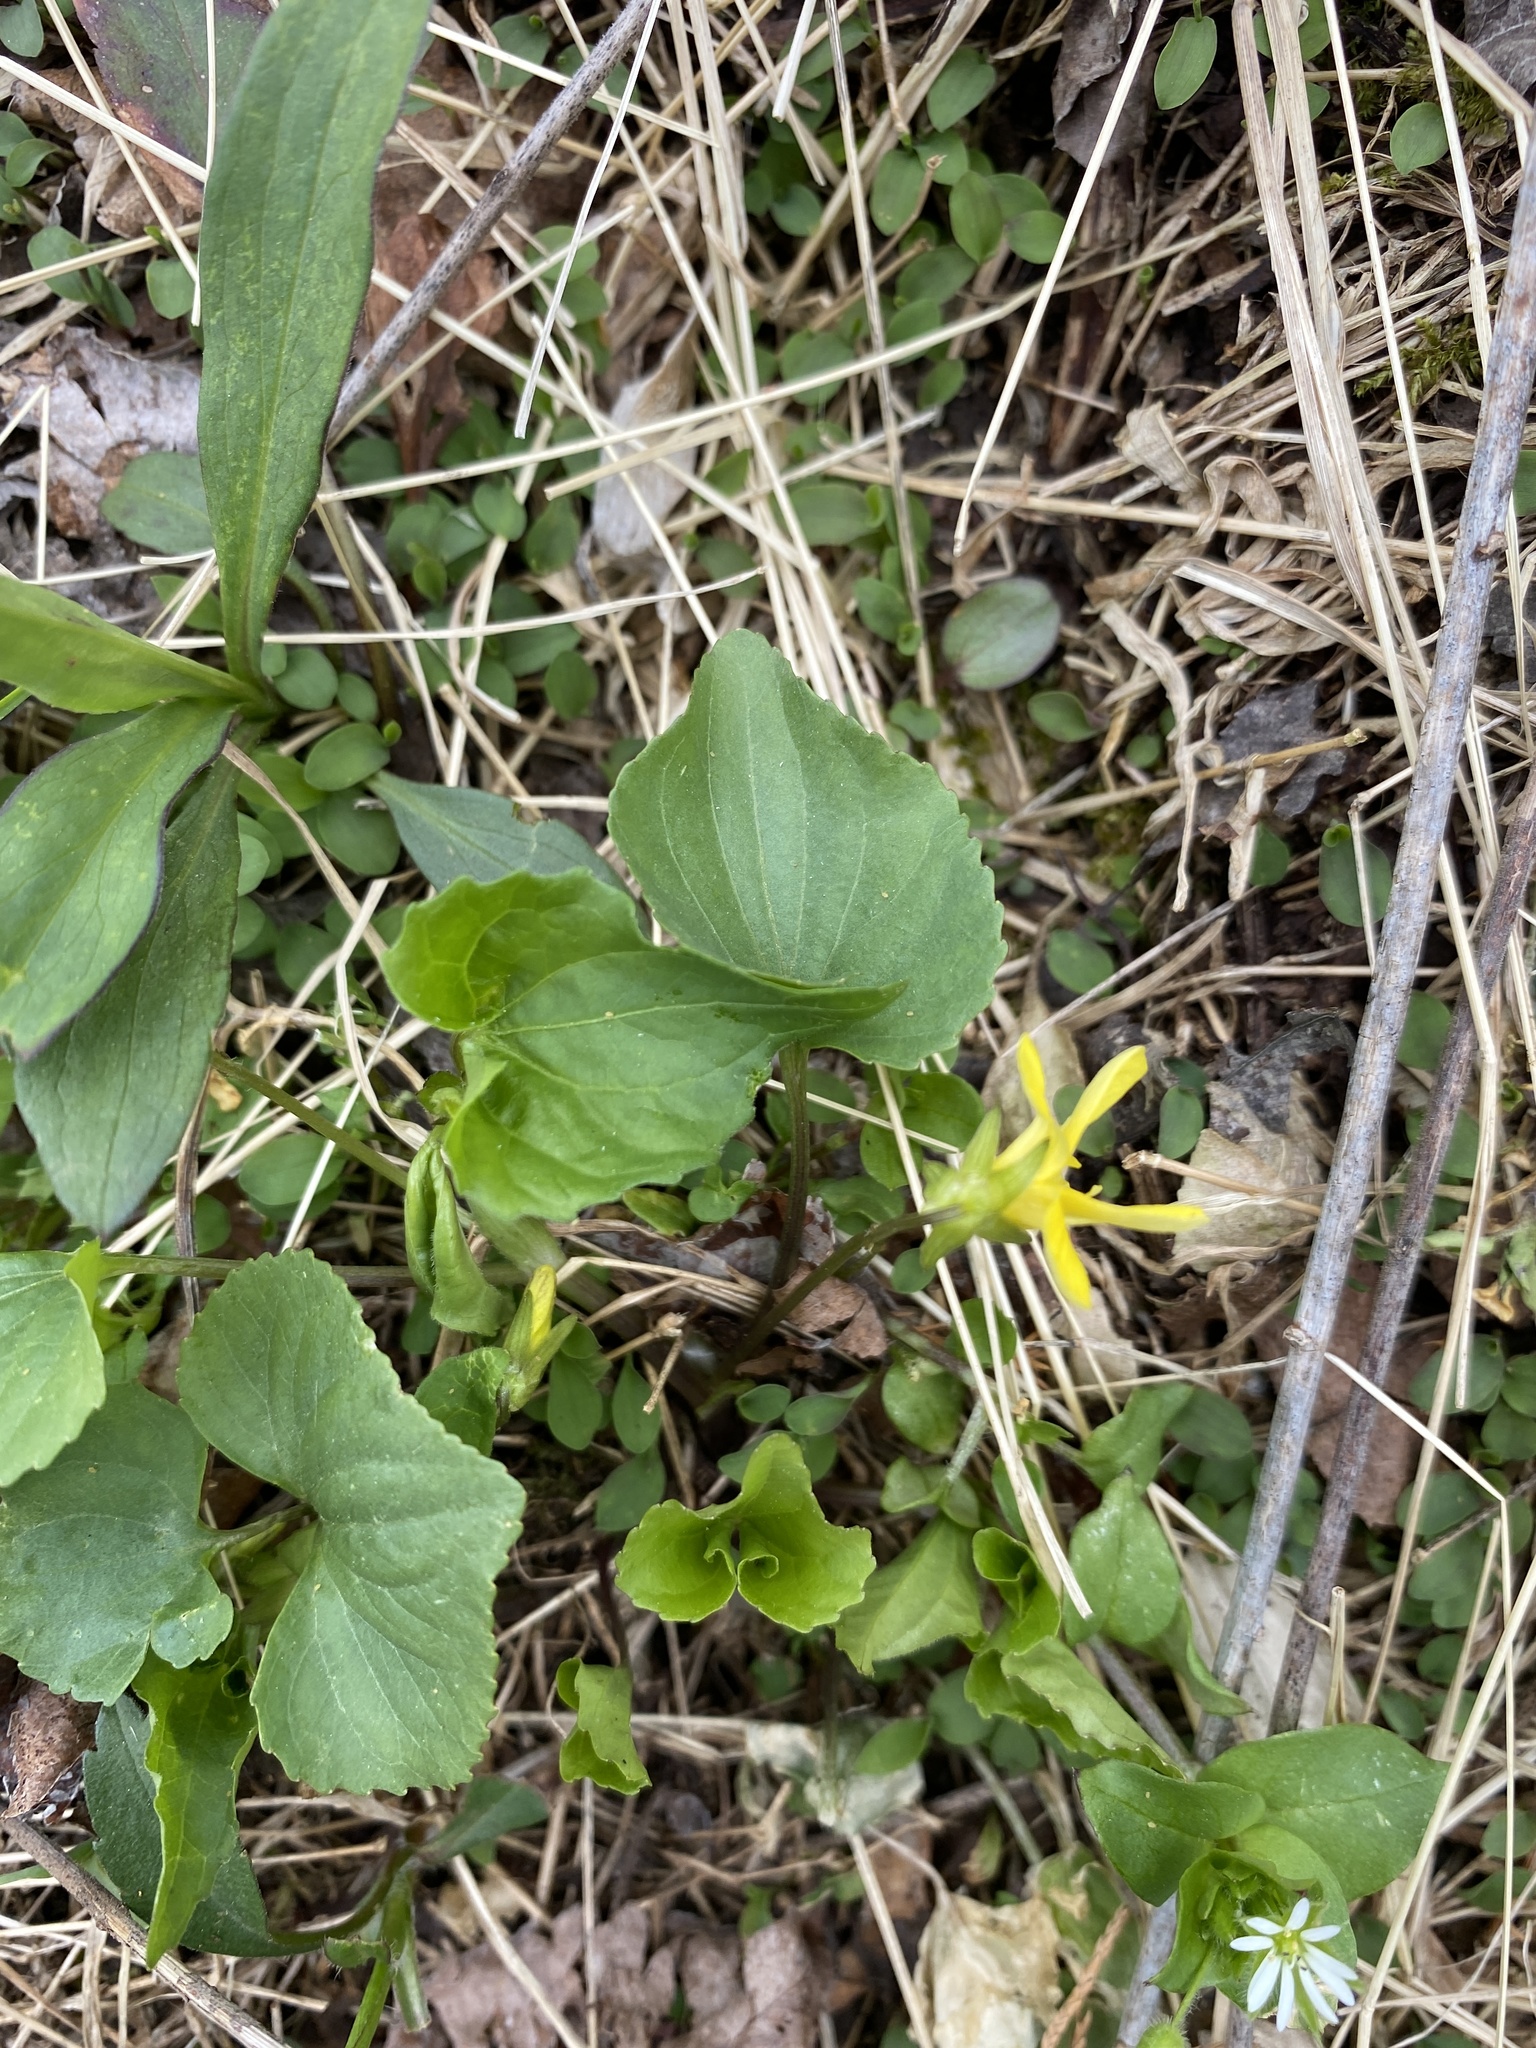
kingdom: Plantae
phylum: Tracheophyta
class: Magnoliopsida
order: Malpighiales
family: Violaceae
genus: Viola
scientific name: Viola eriocarpa
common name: Smooth yellow violet
